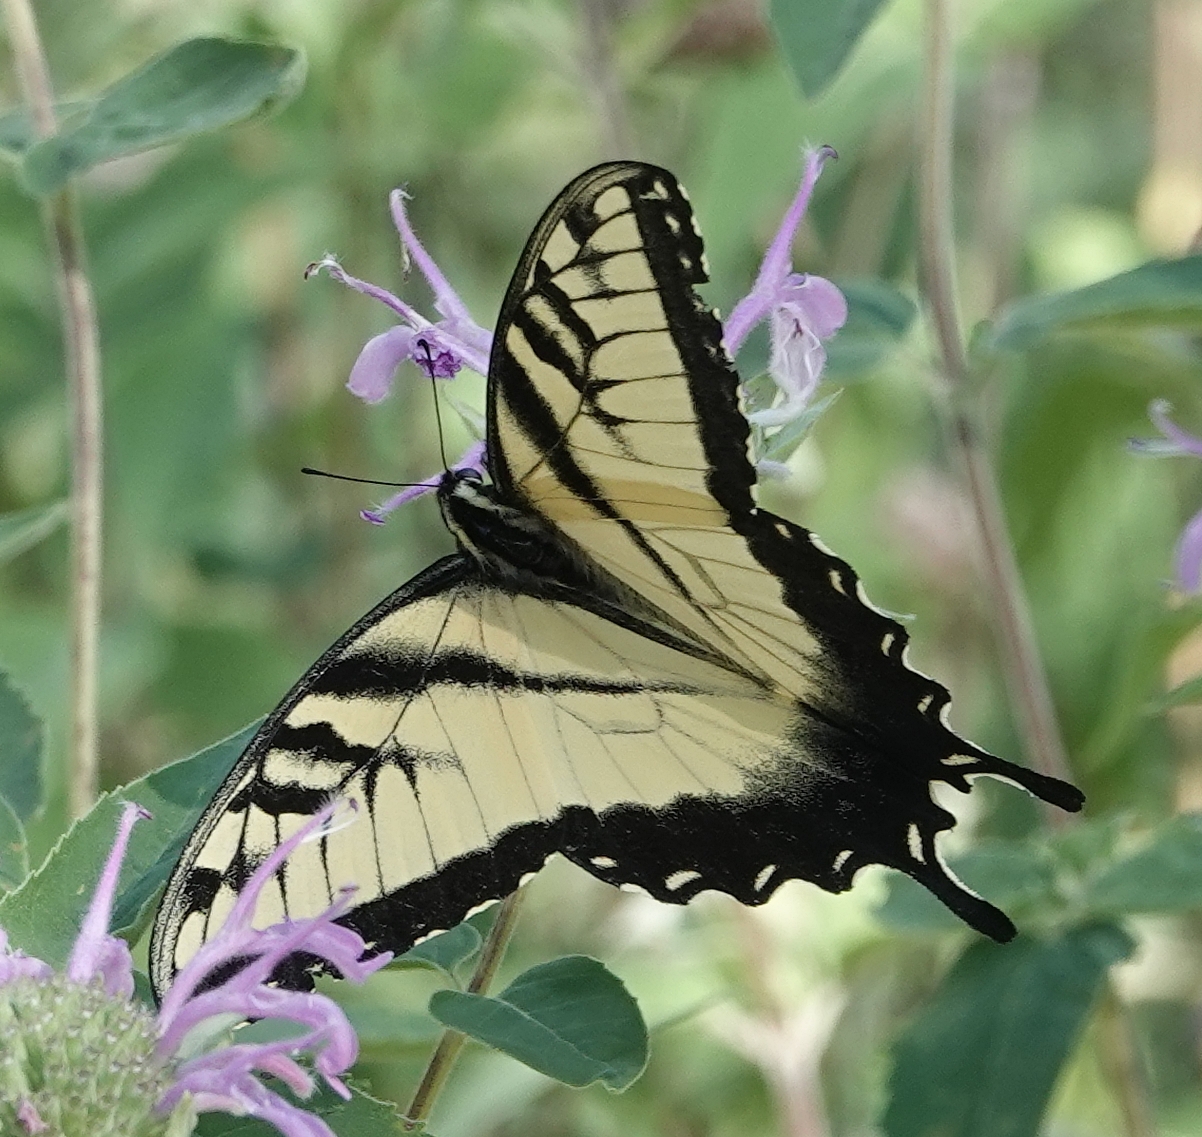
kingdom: Animalia
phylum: Arthropoda
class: Insecta
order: Lepidoptera
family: Papilionidae
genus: Papilio
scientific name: Papilio glaucus
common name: Tiger swallowtail
